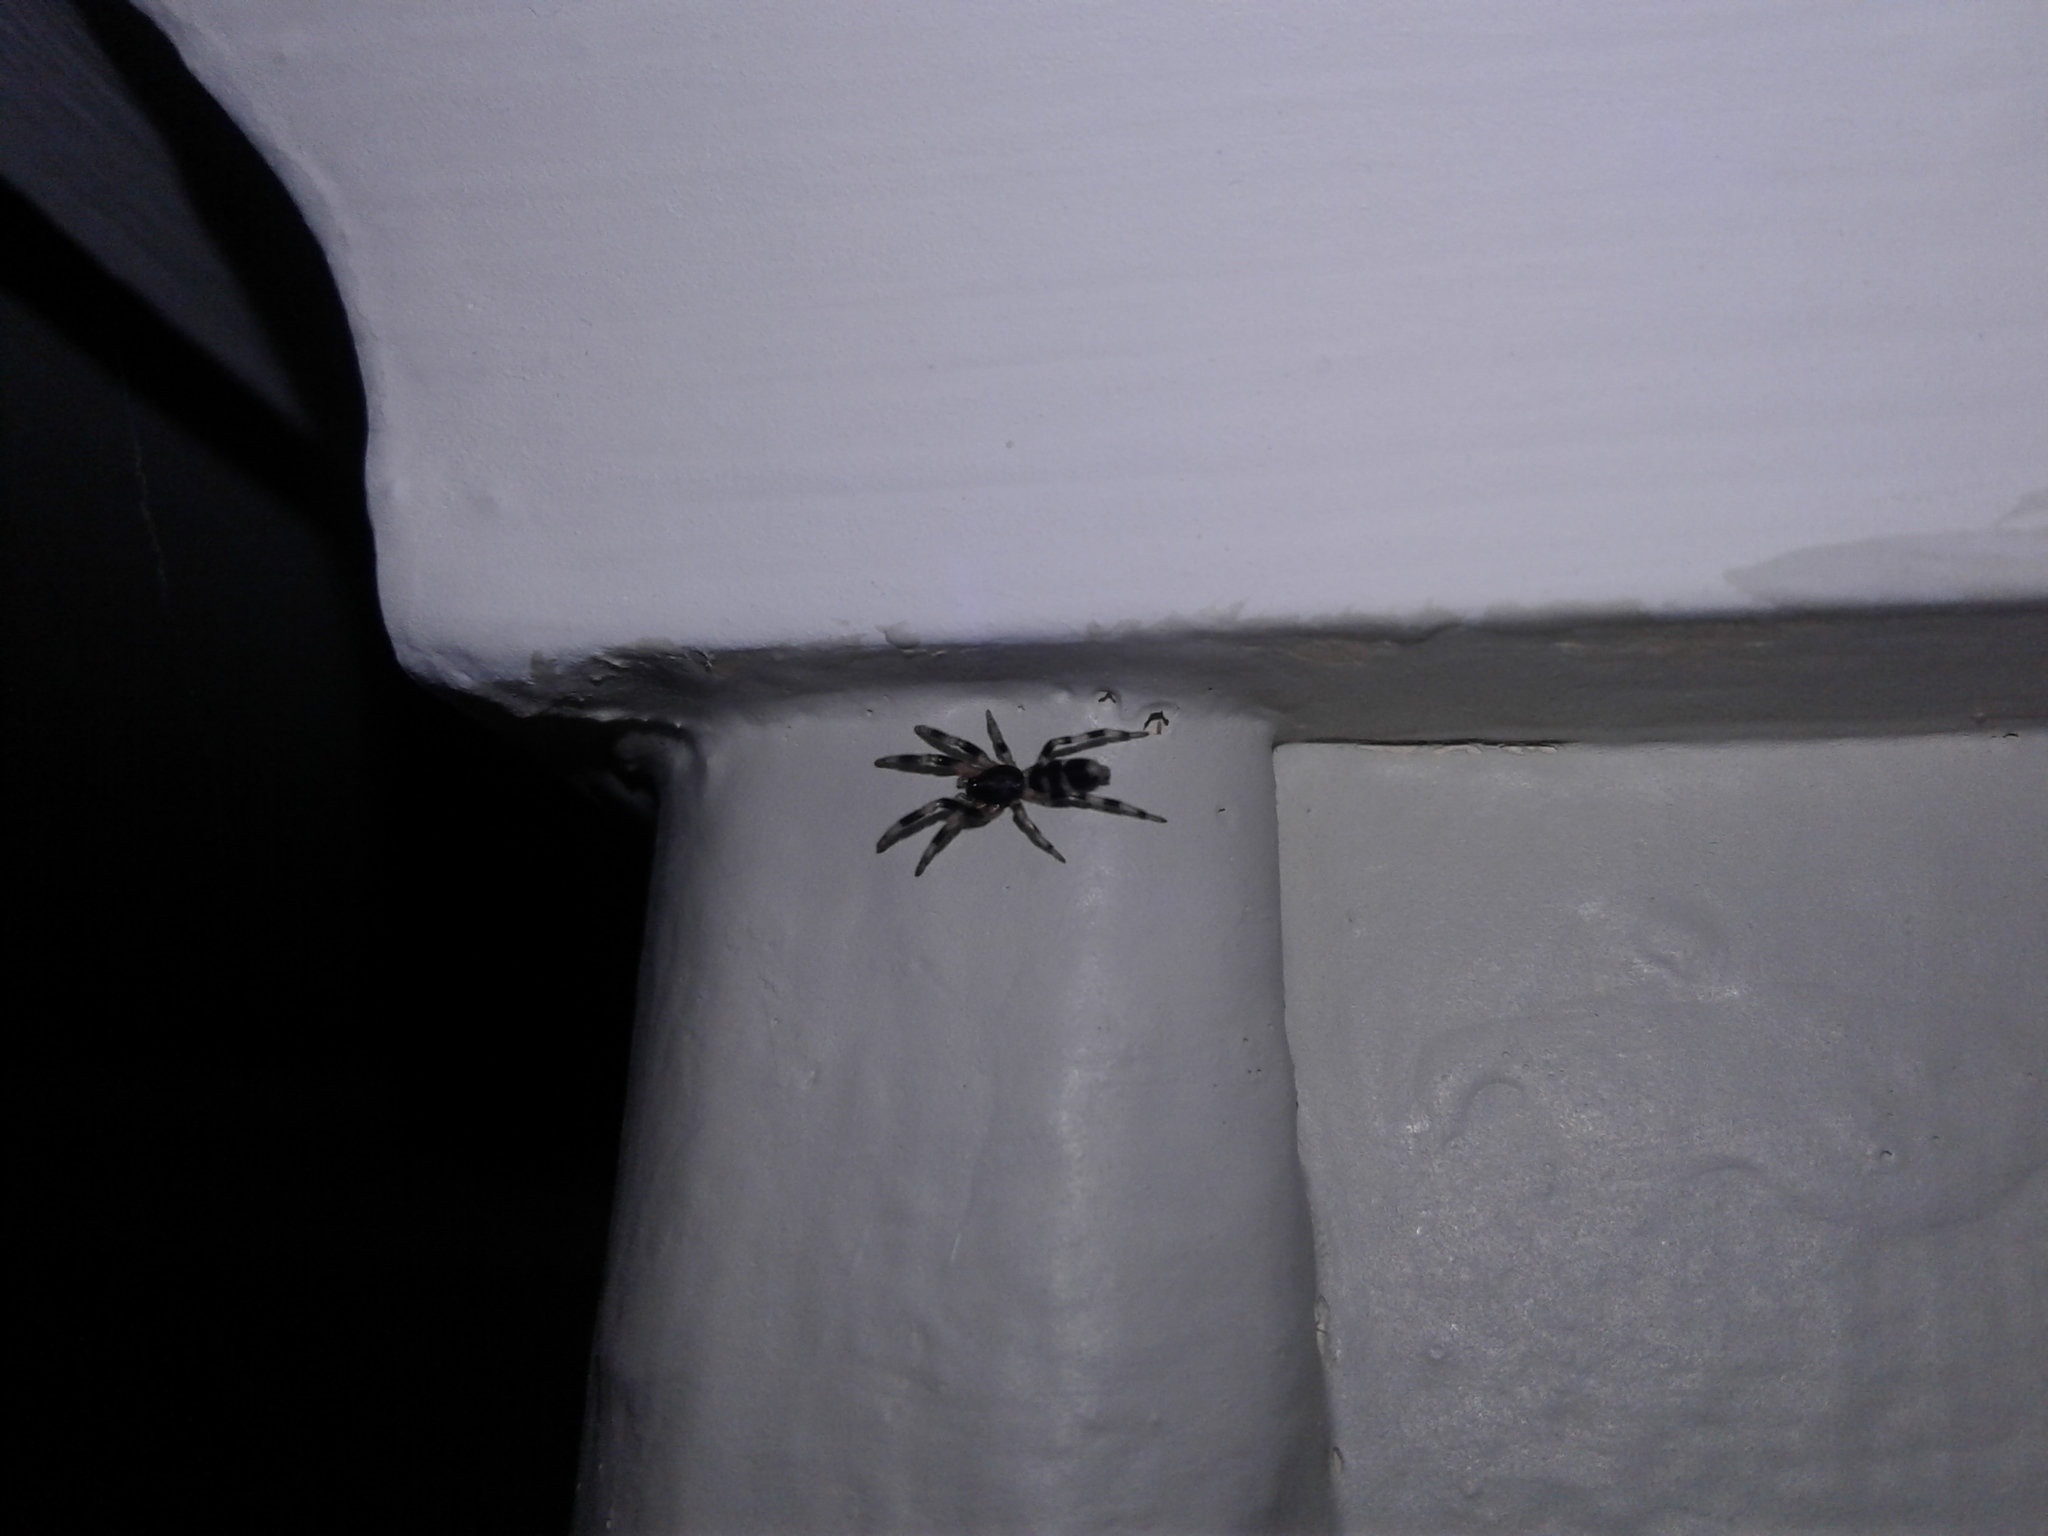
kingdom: Animalia
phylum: Arthropoda
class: Arachnida
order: Araneae
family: Lamponidae
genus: Lampona
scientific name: Lampona cylindrata
